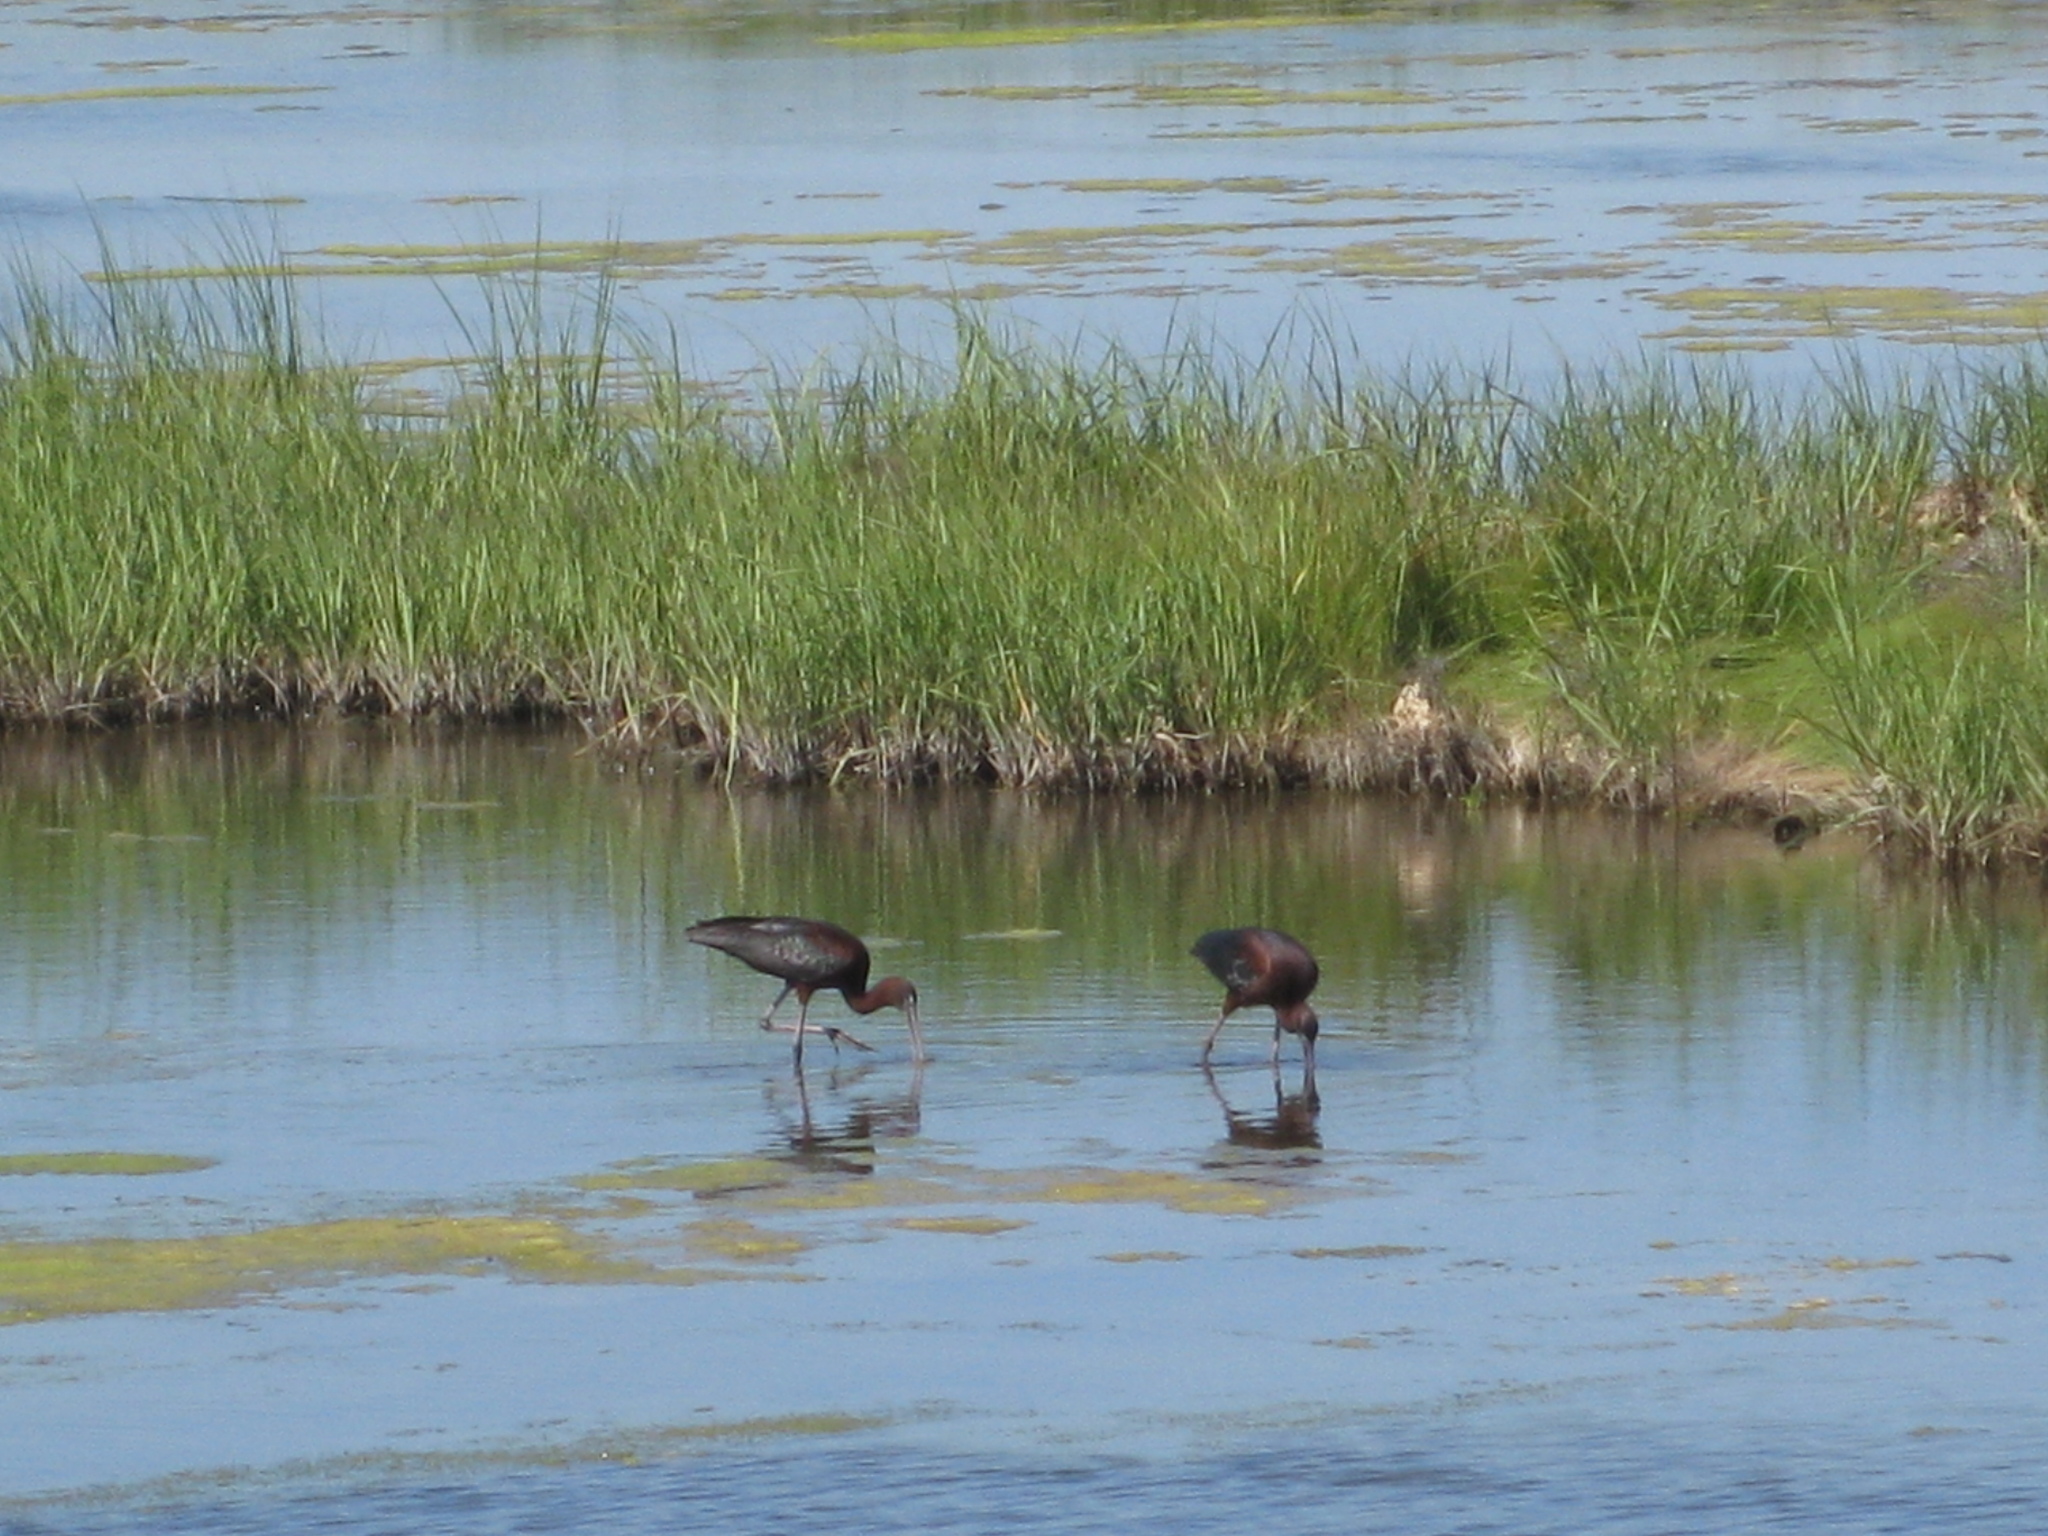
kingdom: Animalia
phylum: Chordata
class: Aves
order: Pelecaniformes
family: Threskiornithidae
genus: Plegadis
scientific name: Plegadis falcinellus
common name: Glossy ibis
